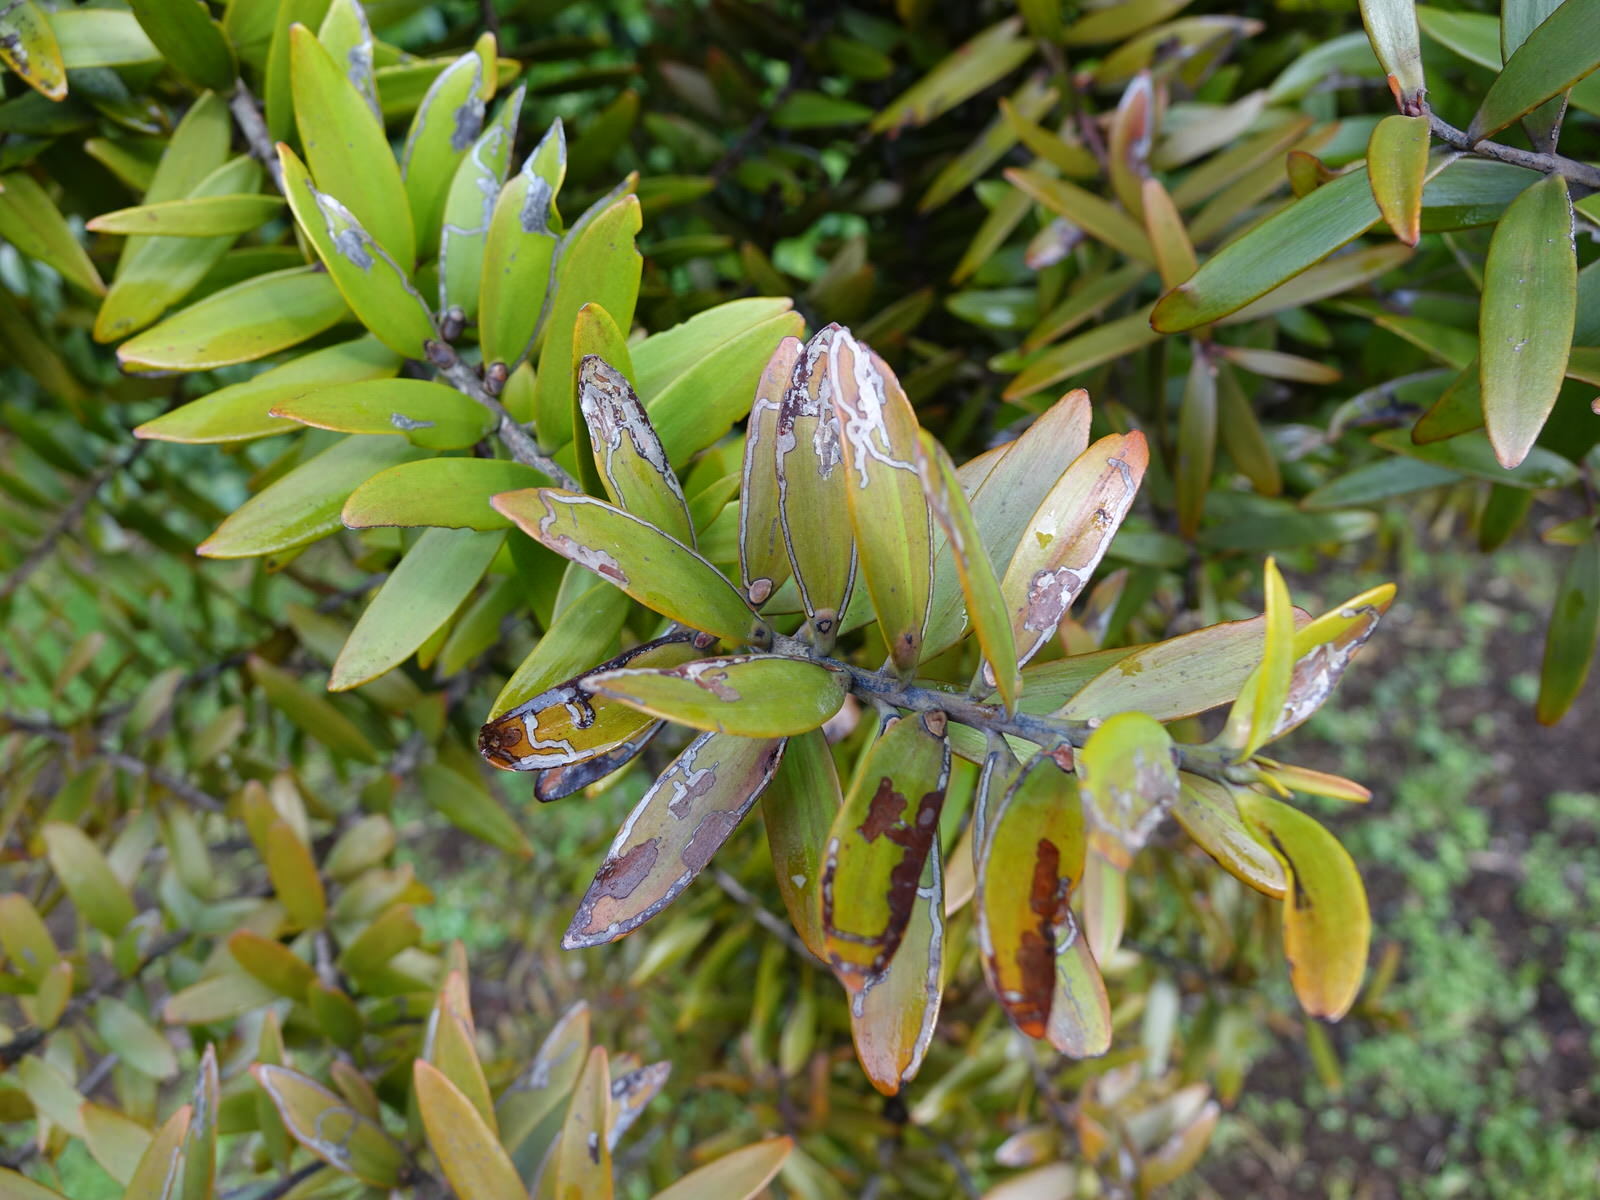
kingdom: Animalia
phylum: Arthropoda
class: Insecta
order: Lepidoptera
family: Gracillariidae
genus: Acrocercops
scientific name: Acrocercops leucotoma
